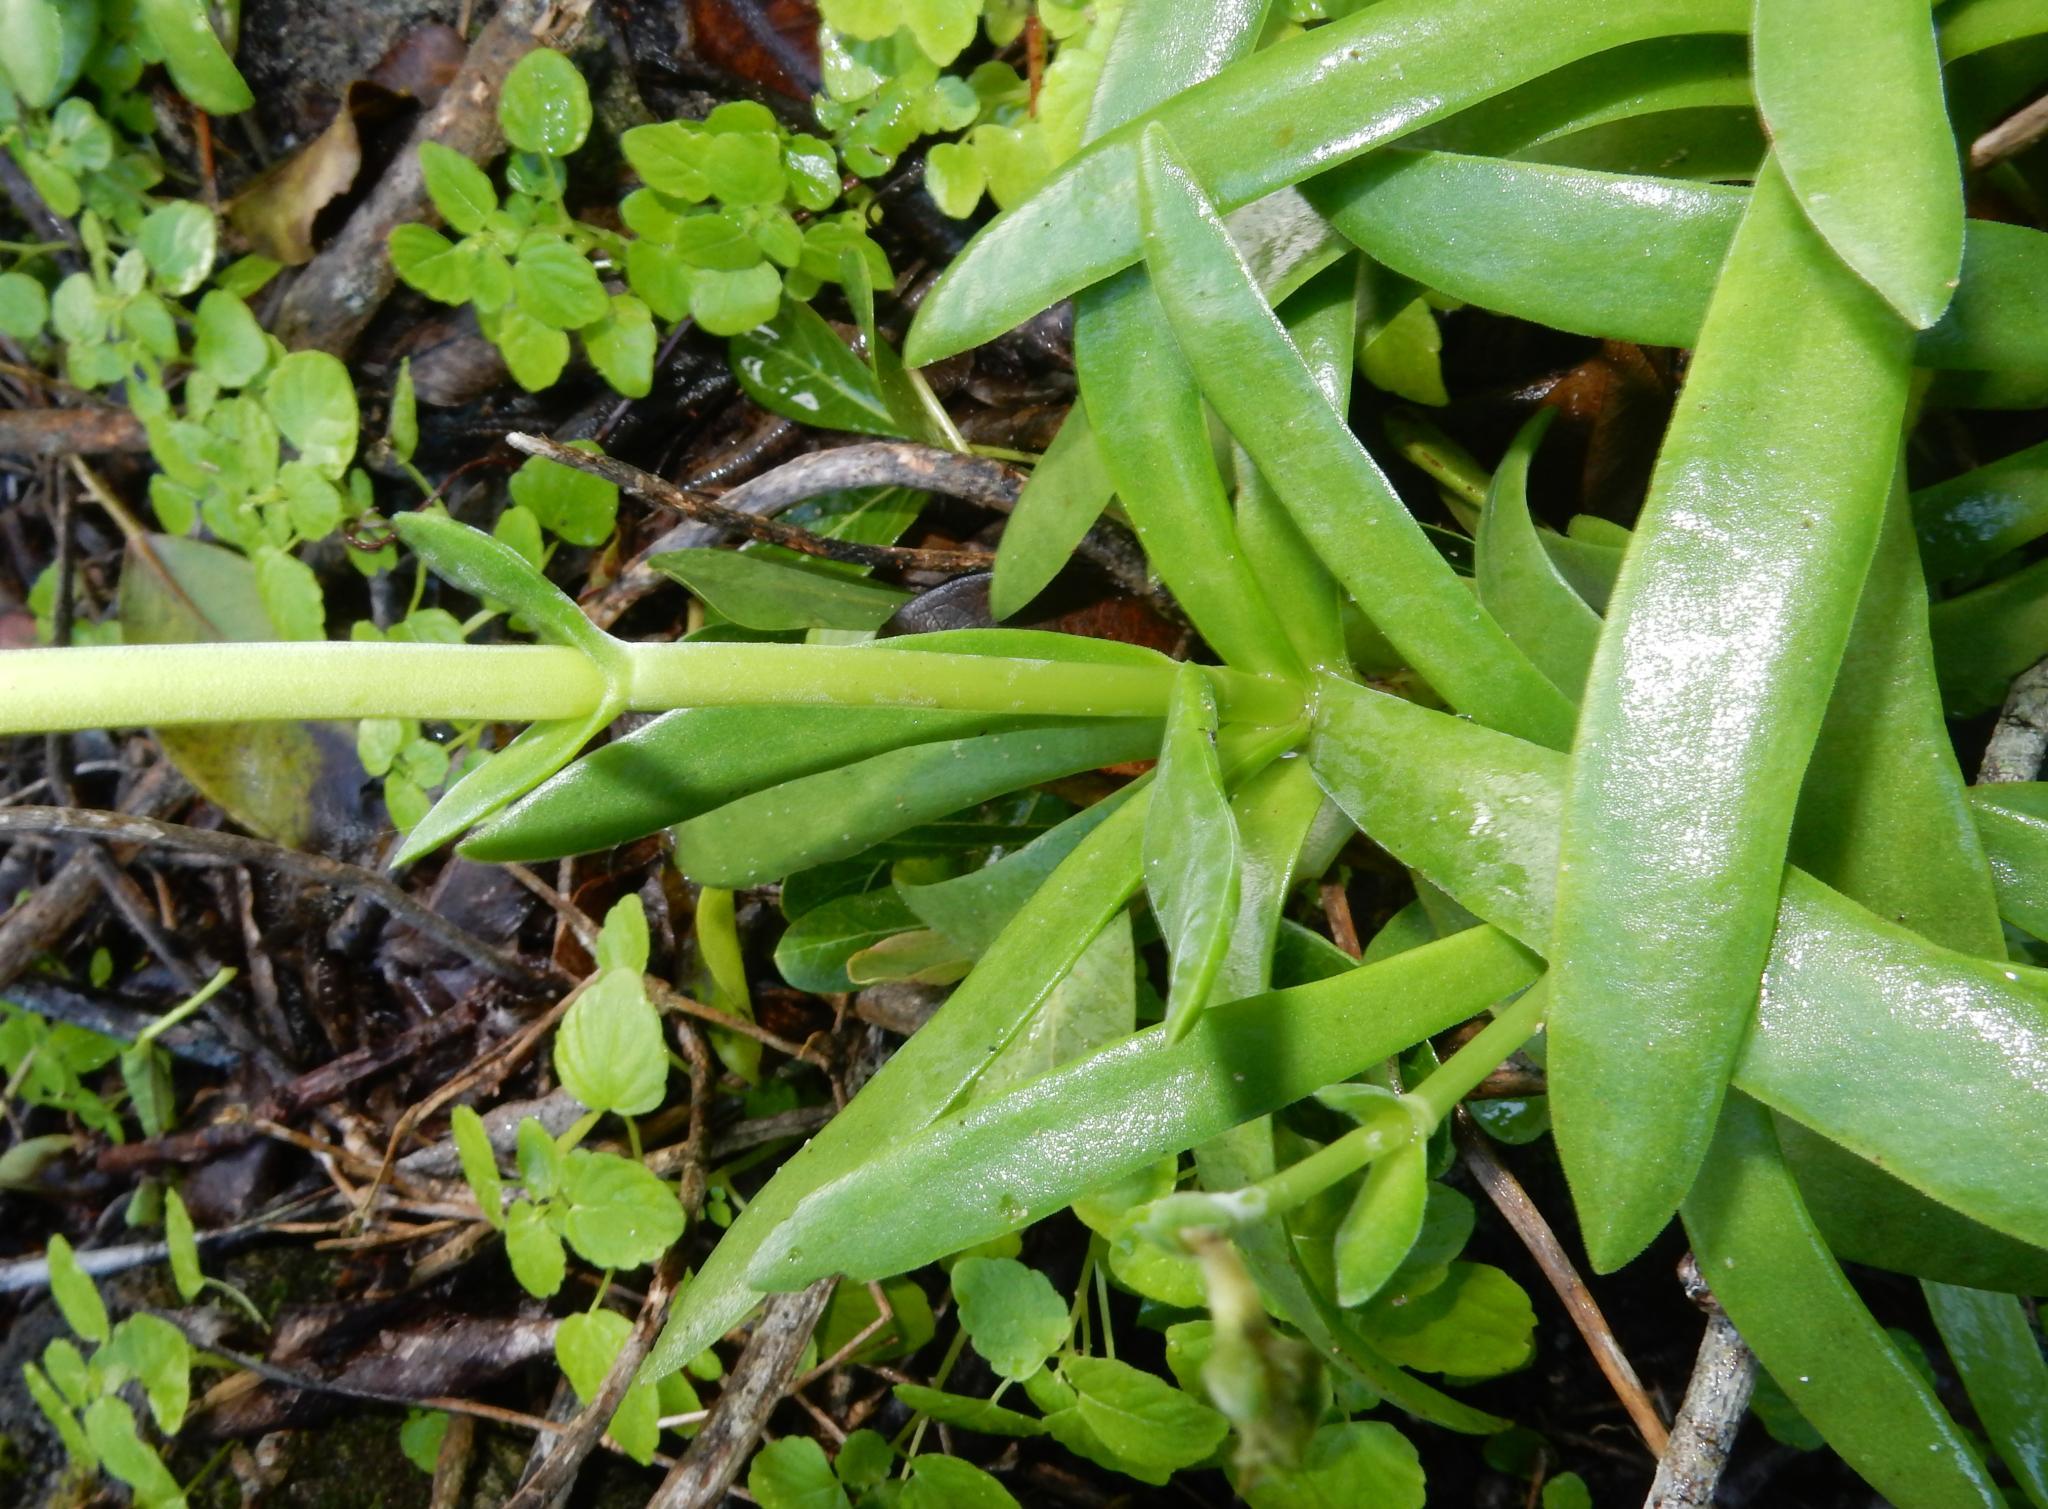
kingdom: Plantae
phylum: Tracheophyta
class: Magnoliopsida
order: Saxifragales
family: Crassulaceae
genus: Crassula
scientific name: Crassula nudicaulis
